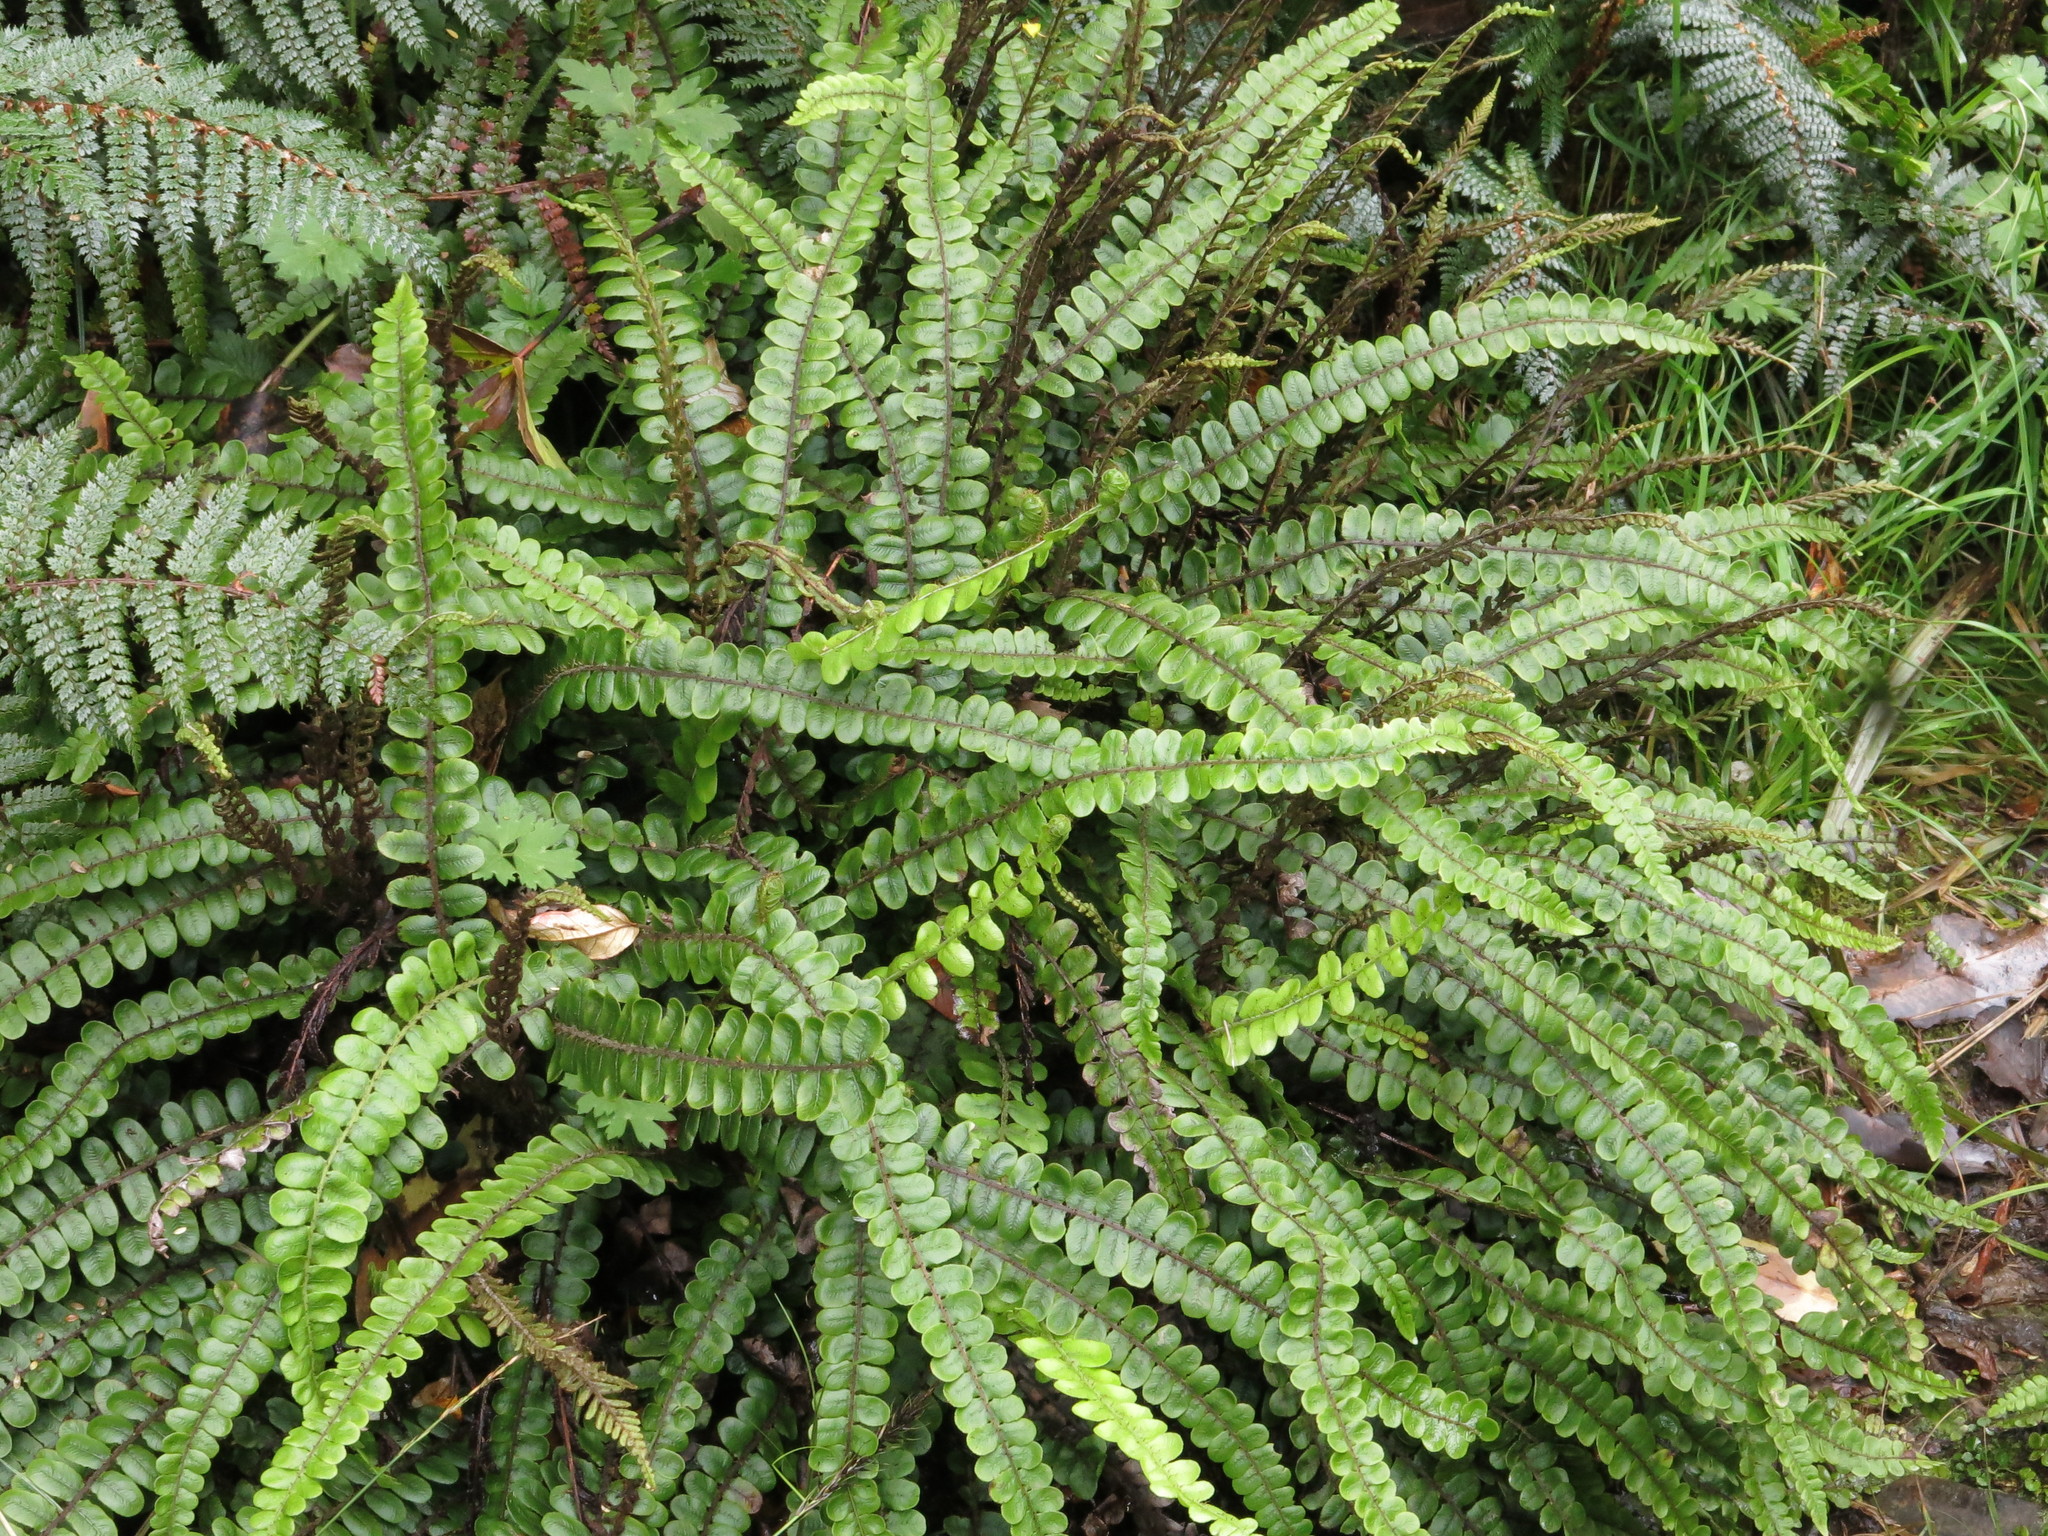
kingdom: Plantae
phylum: Tracheophyta
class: Polypodiopsida
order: Polypodiales
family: Blechnaceae
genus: Cranfillia
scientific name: Cranfillia fluviatilis
